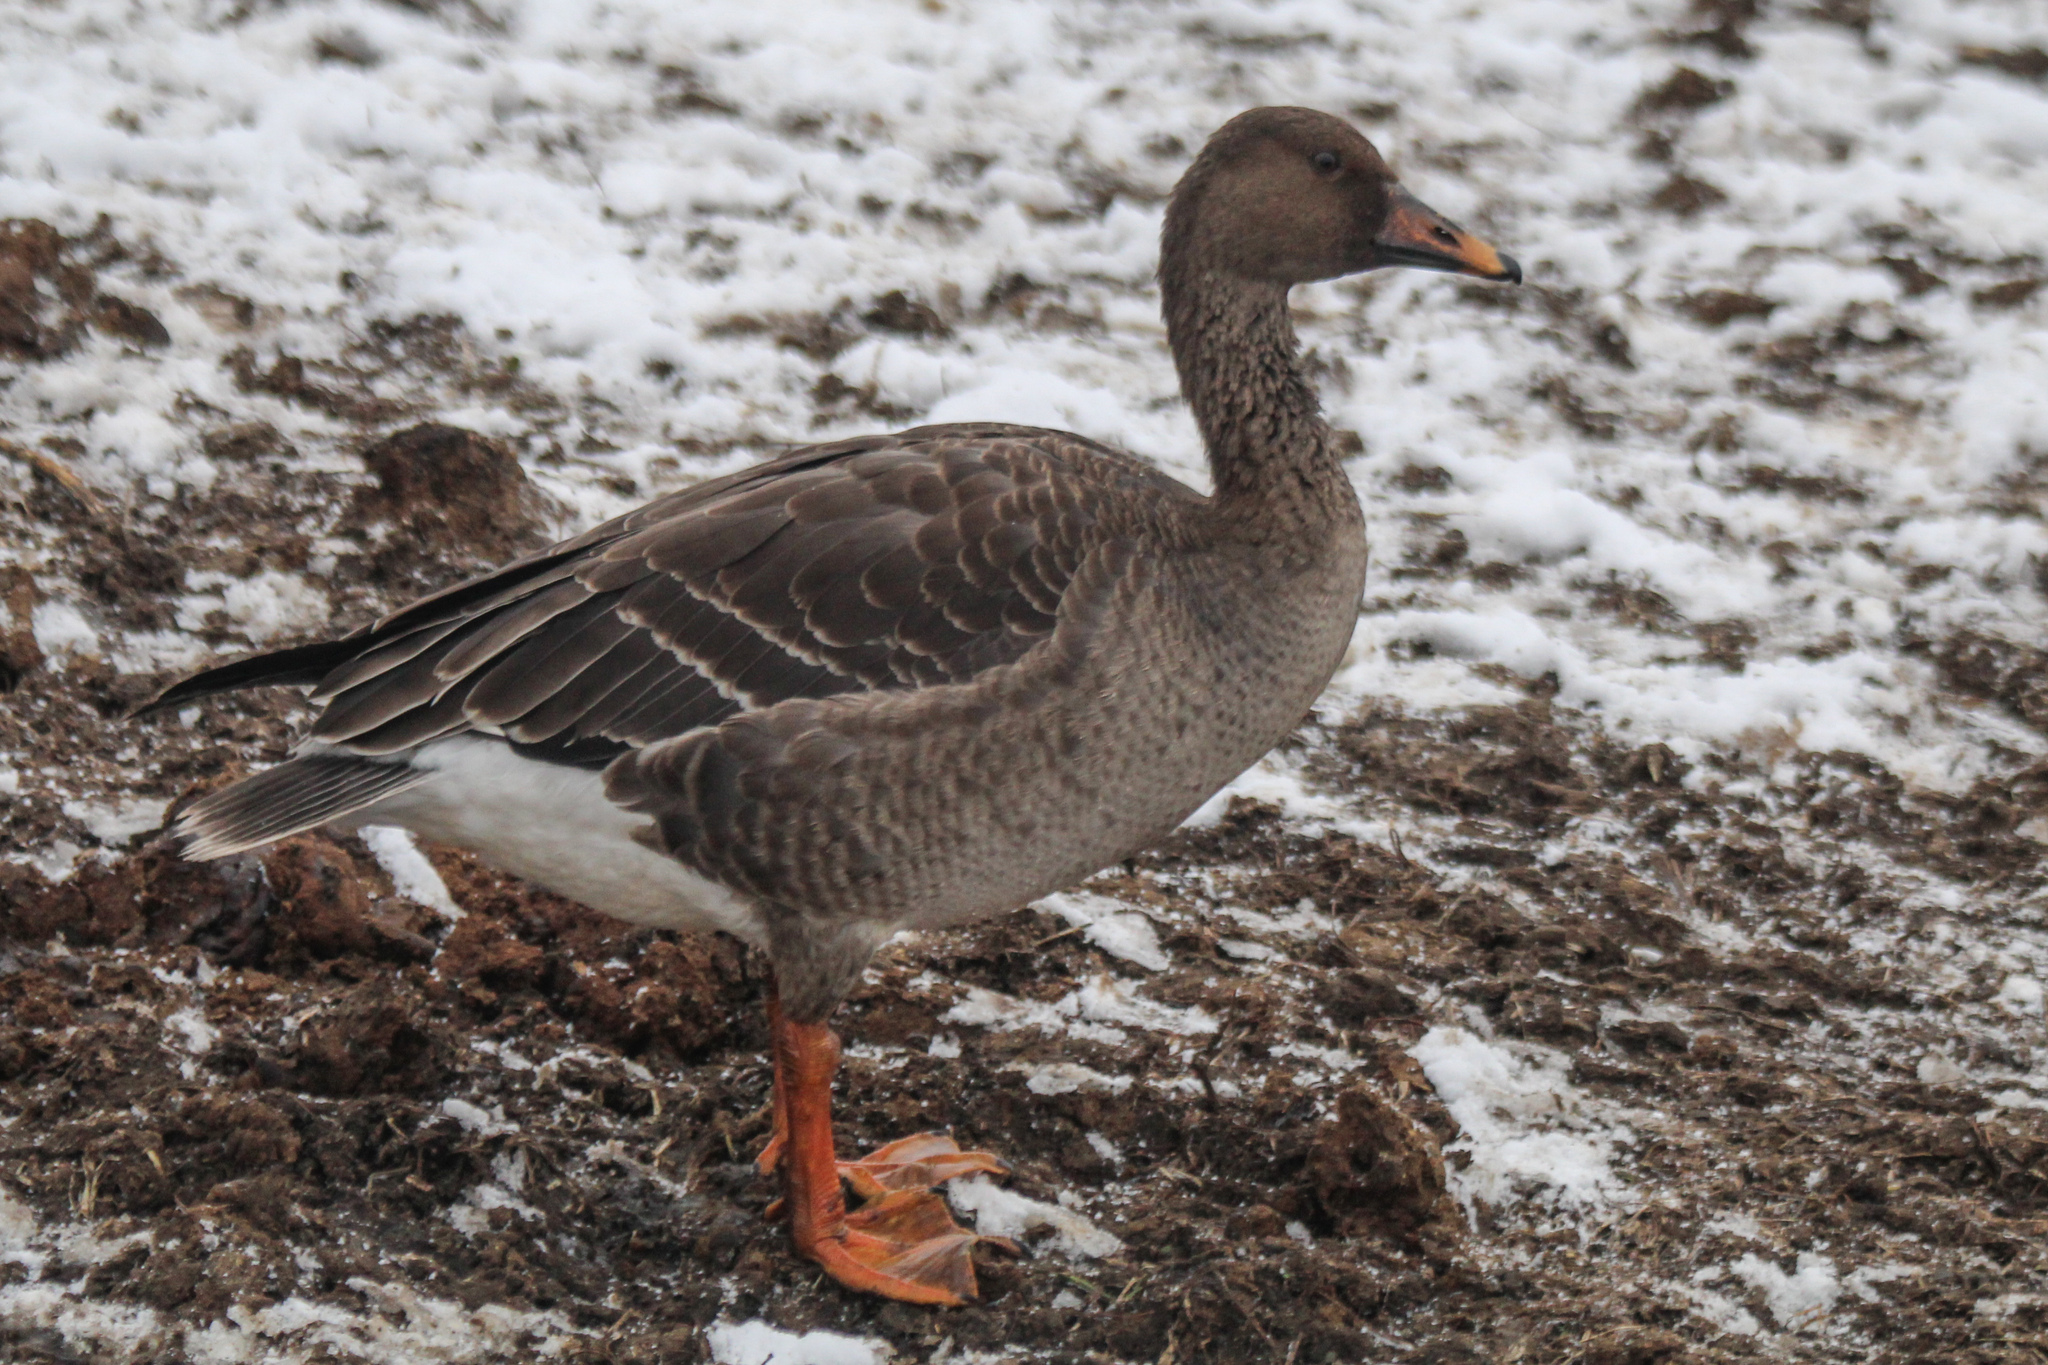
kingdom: Animalia
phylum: Chordata
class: Aves
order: Anseriformes
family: Anatidae
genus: Anser
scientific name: Anser fabalis
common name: Bean goose
